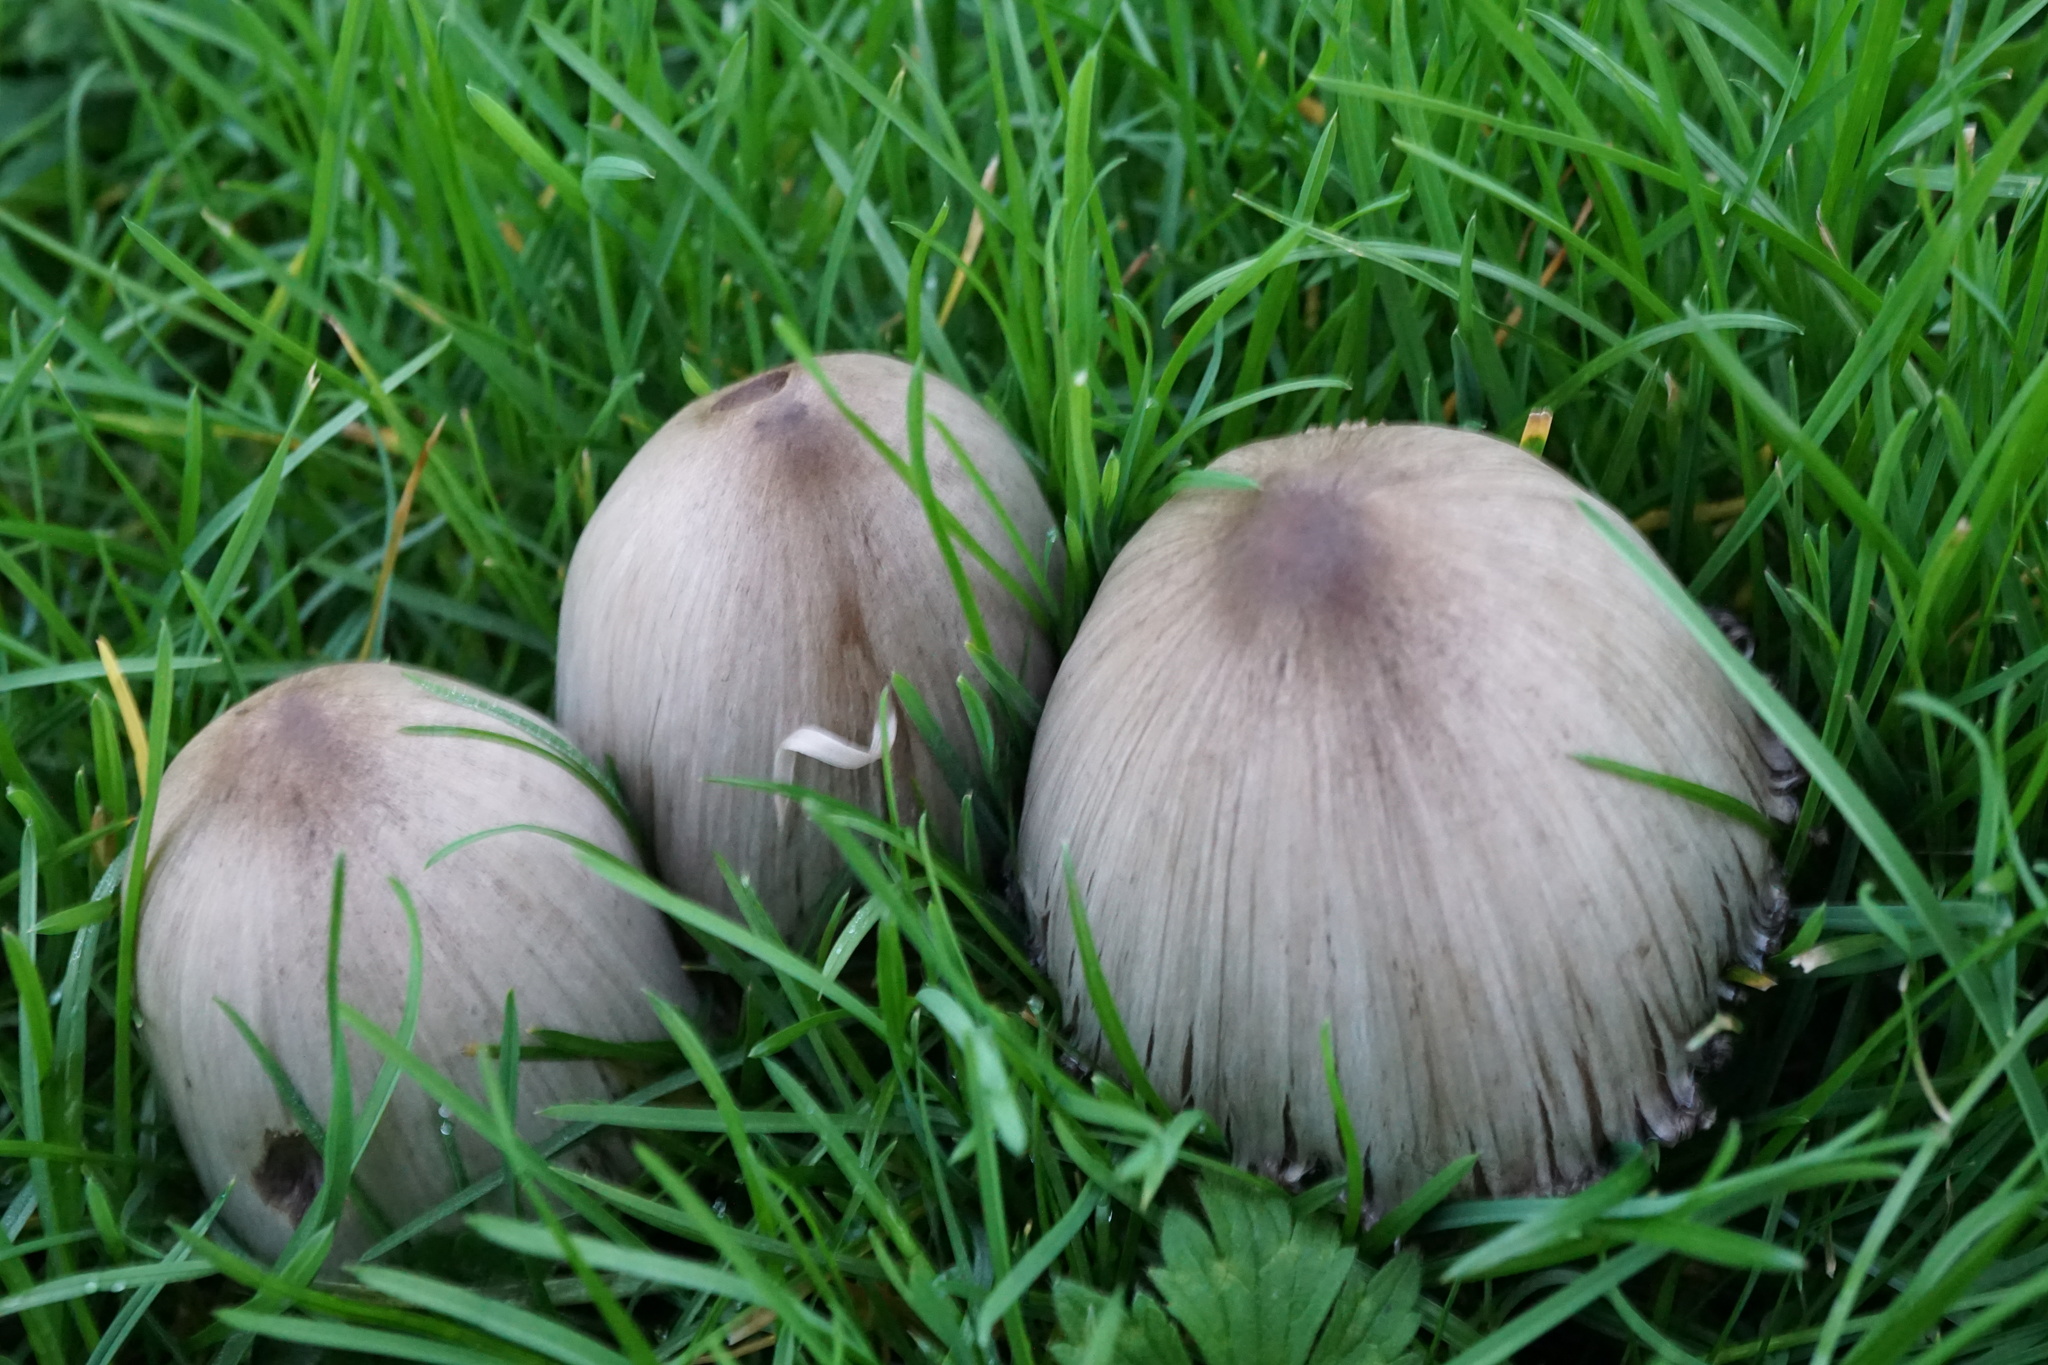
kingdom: Fungi
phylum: Basidiomycota
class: Agaricomycetes
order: Agaricales
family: Psathyrellaceae
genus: Coprinopsis
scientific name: Coprinopsis atramentaria
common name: Common ink-cap
